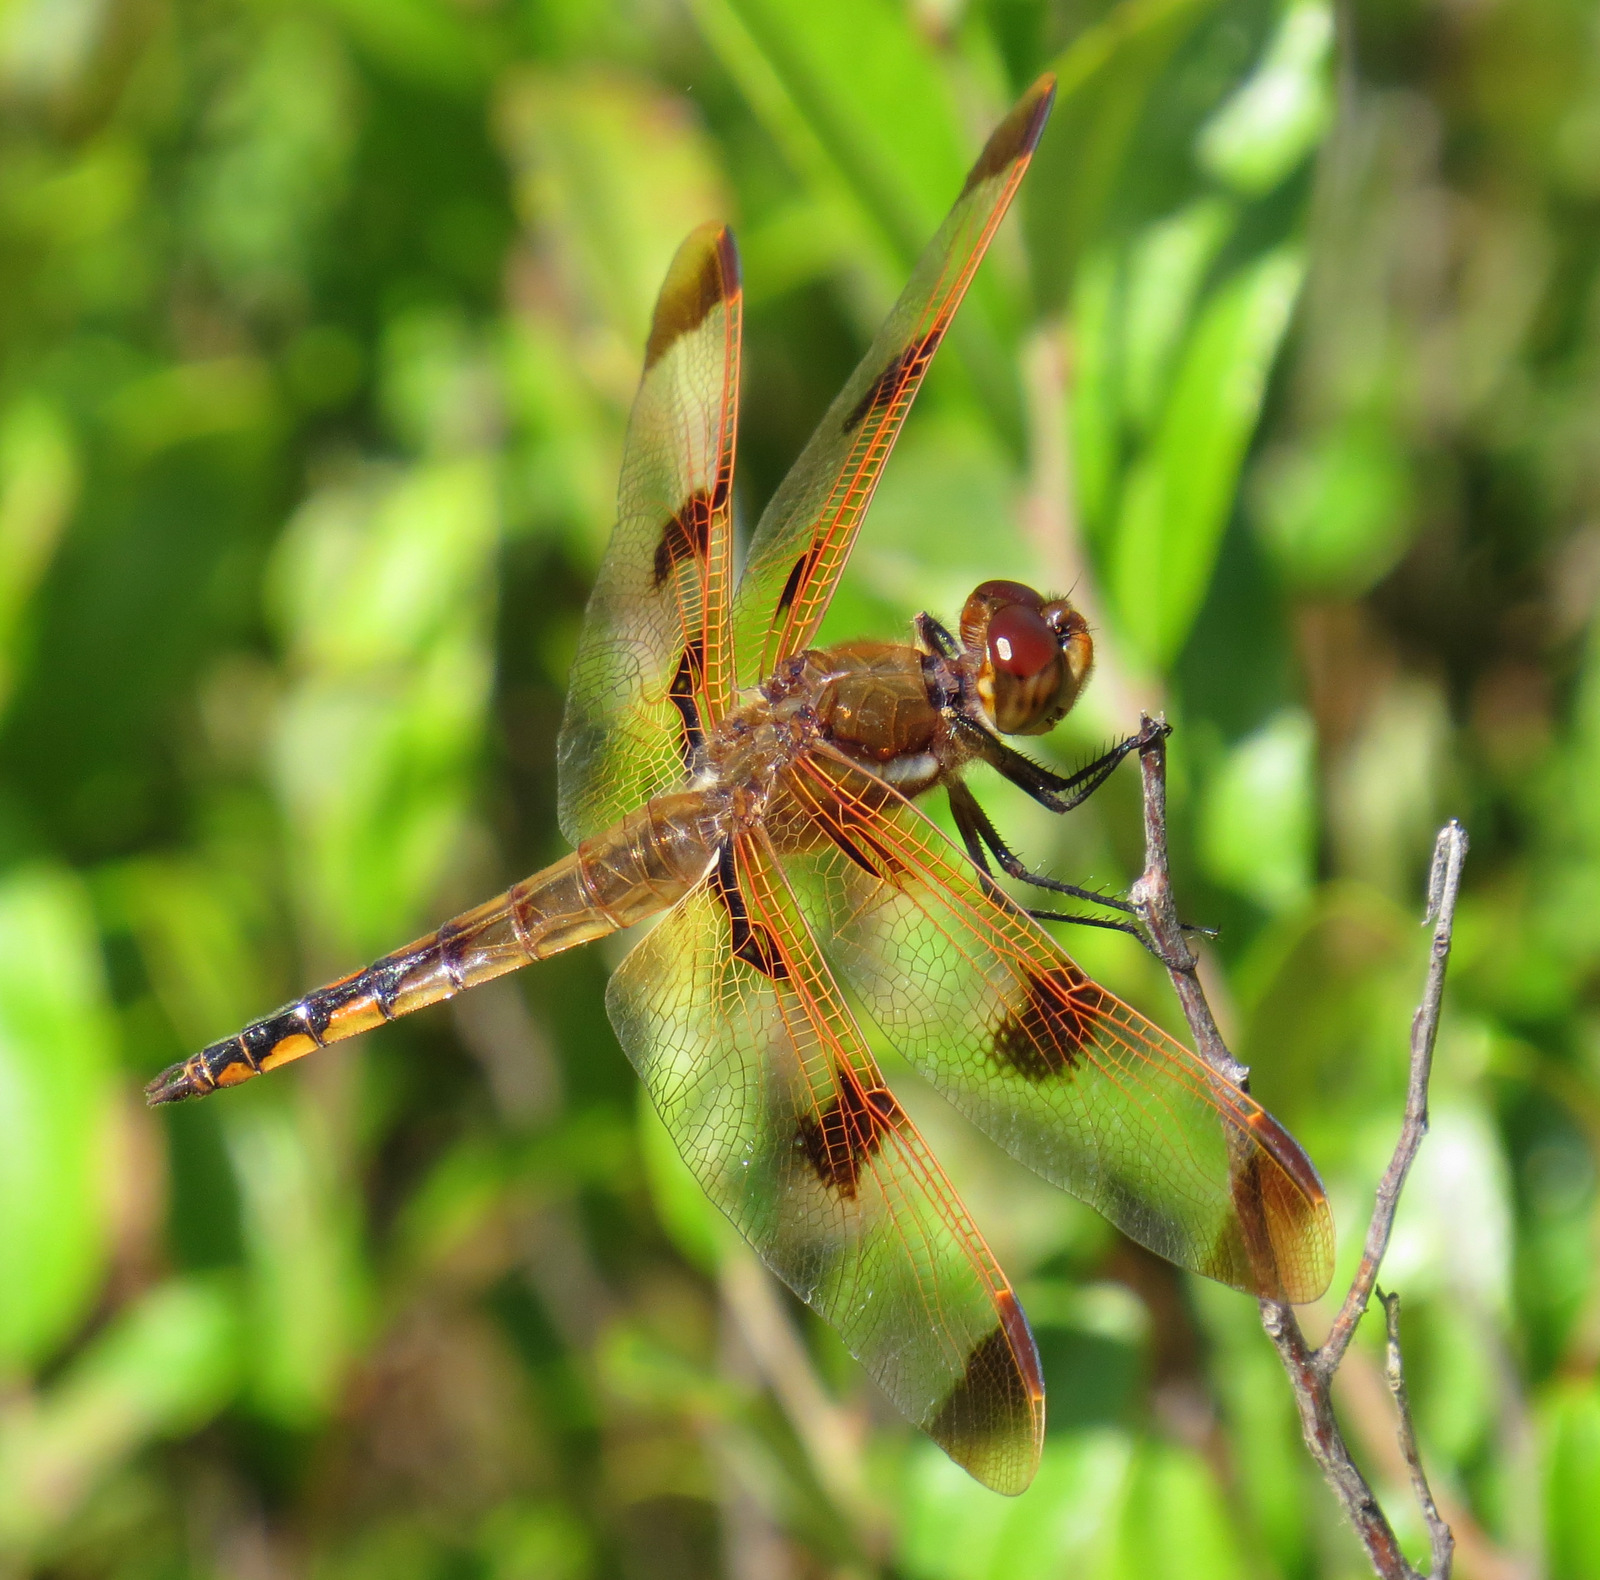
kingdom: Animalia
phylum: Arthropoda
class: Insecta
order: Odonata
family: Libellulidae
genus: Libellula
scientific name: Libellula semifasciata
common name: Painted skimmer
